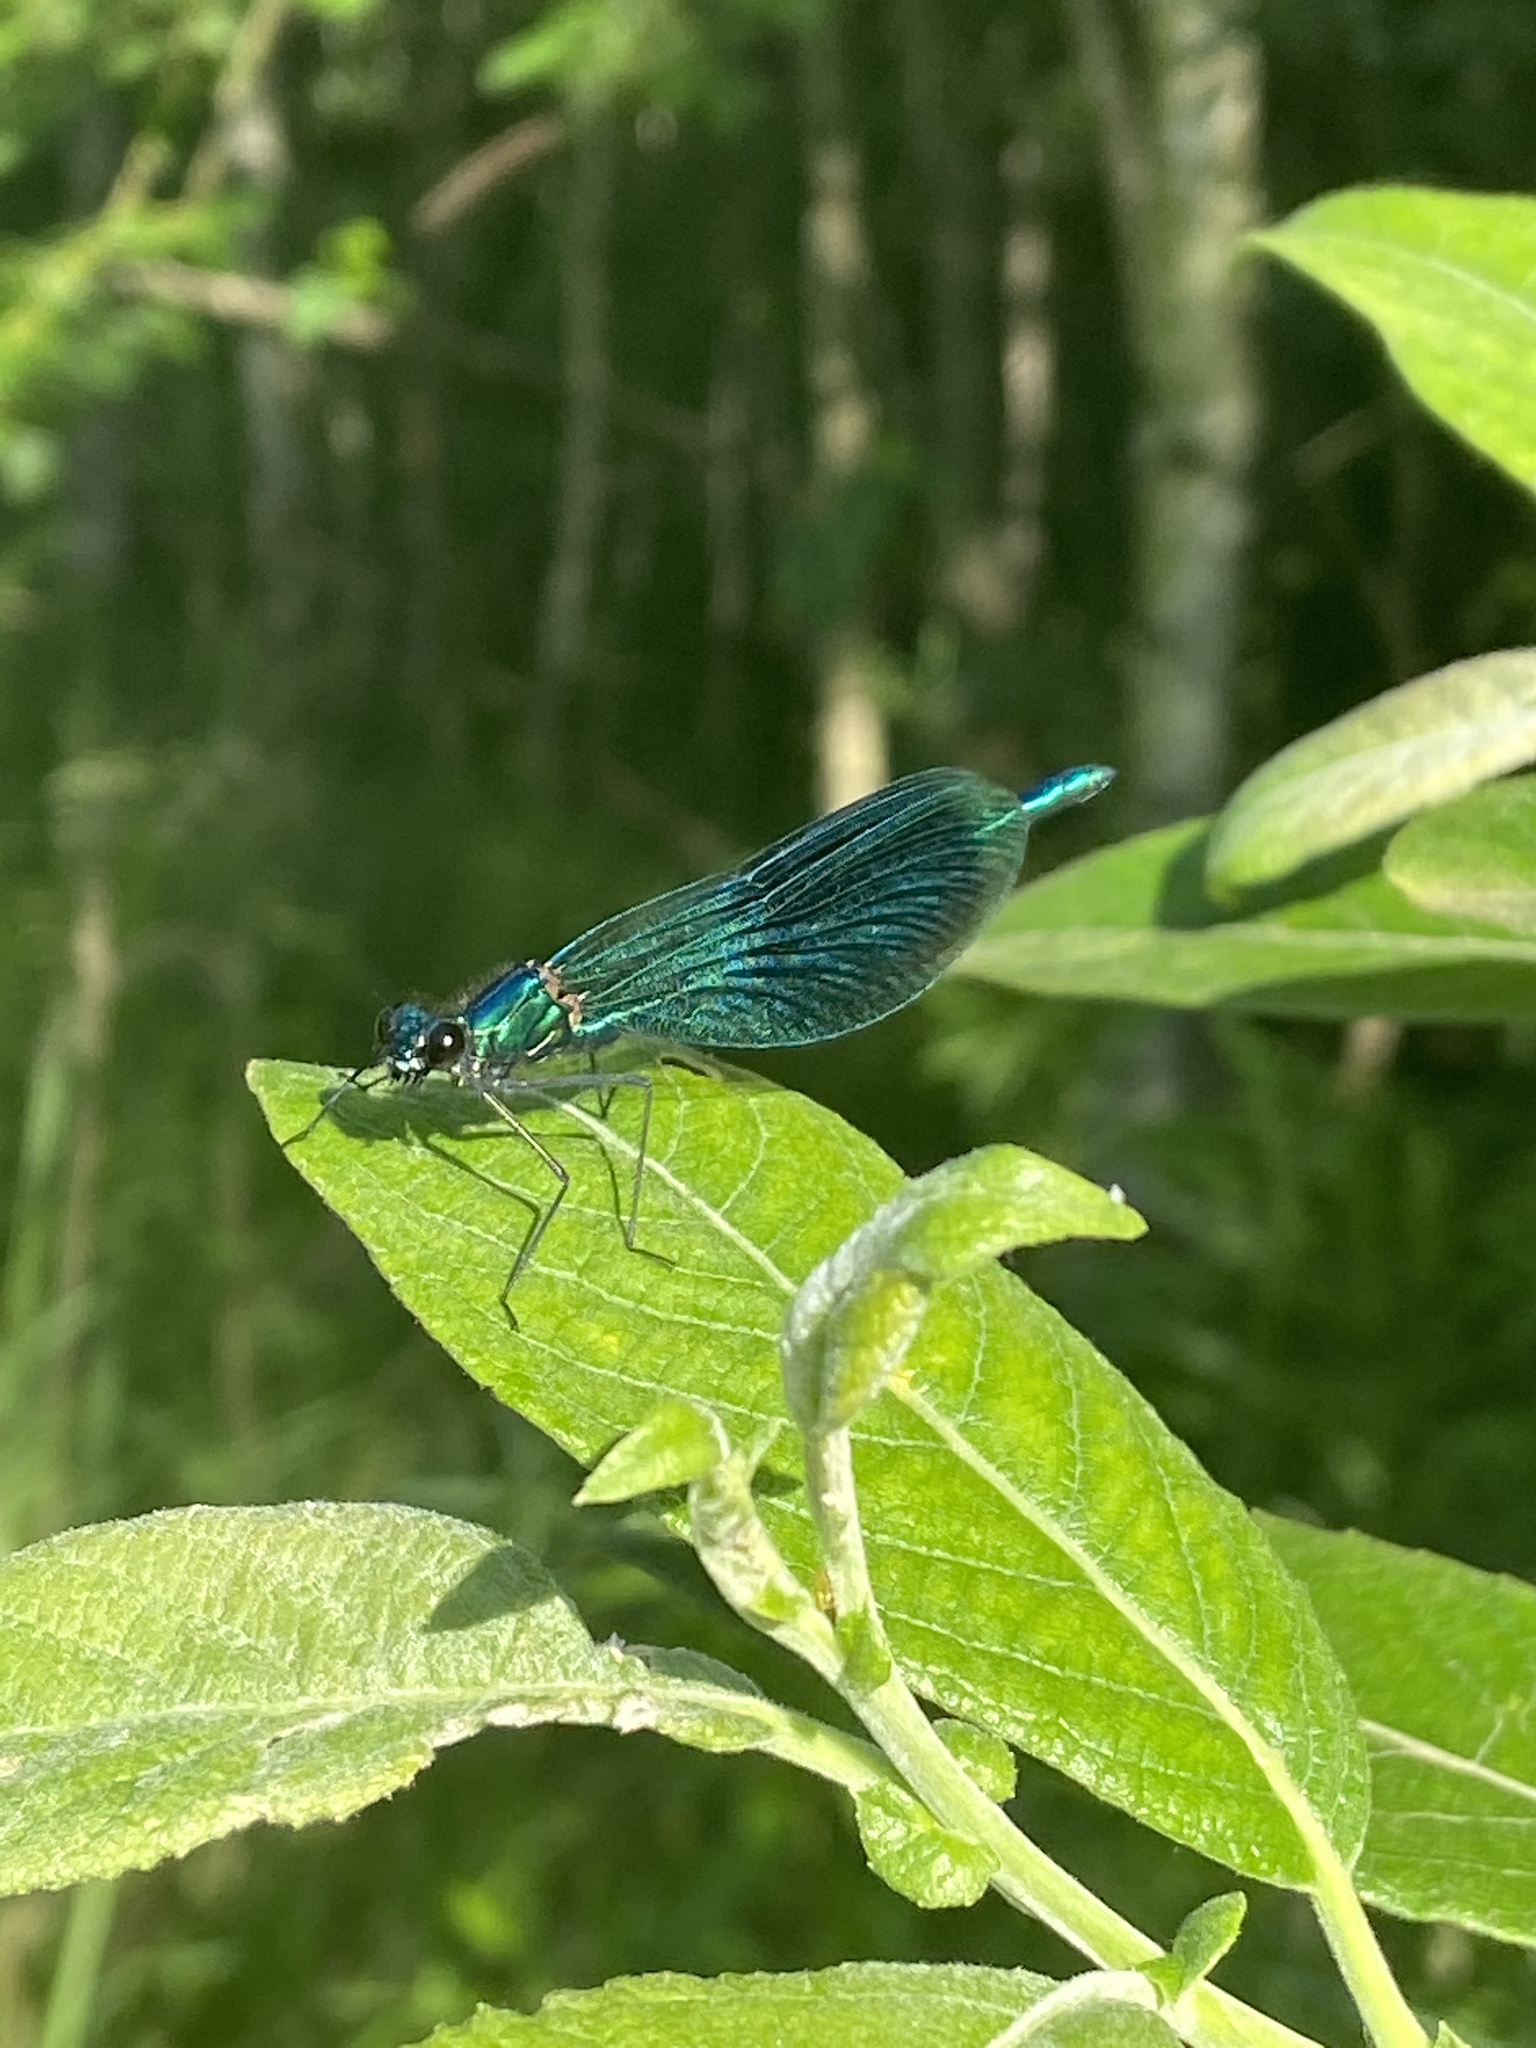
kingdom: Animalia
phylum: Arthropoda
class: Insecta
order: Odonata
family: Calopterygidae
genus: Calopteryx
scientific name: Calopteryx splendens
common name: Banded demoiselle
